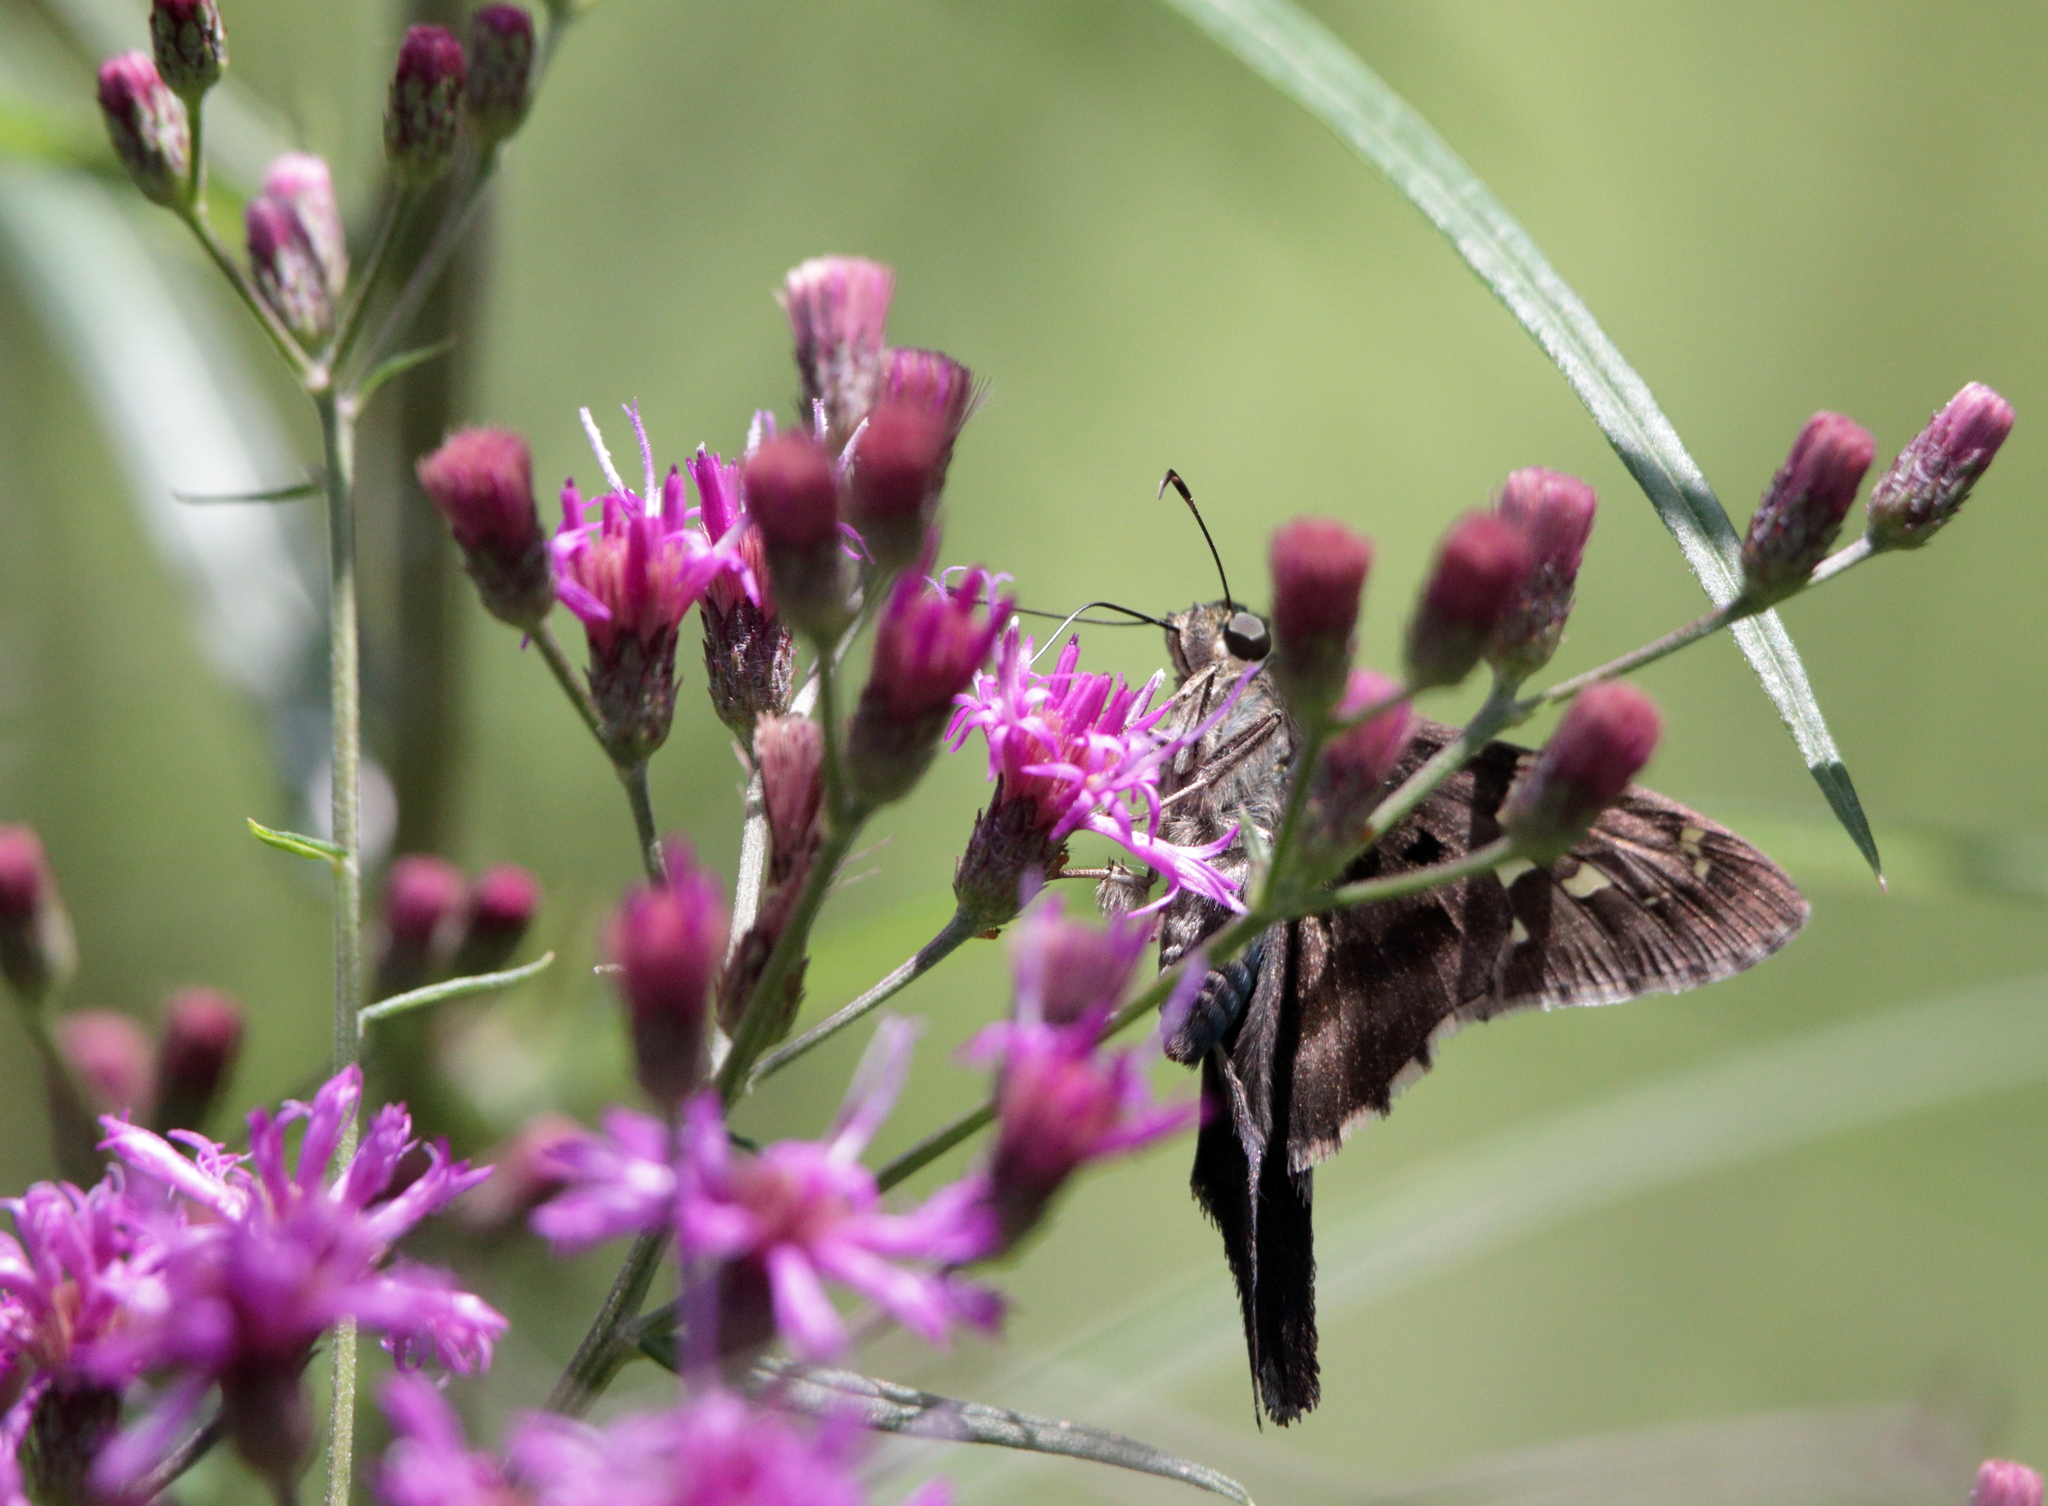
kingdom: Animalia
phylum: Arthropoda
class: Insecta
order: Lepidoptera
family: Hesperiidae
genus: Urbanus
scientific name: Urbanus proteus
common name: Long-tailed skipper
